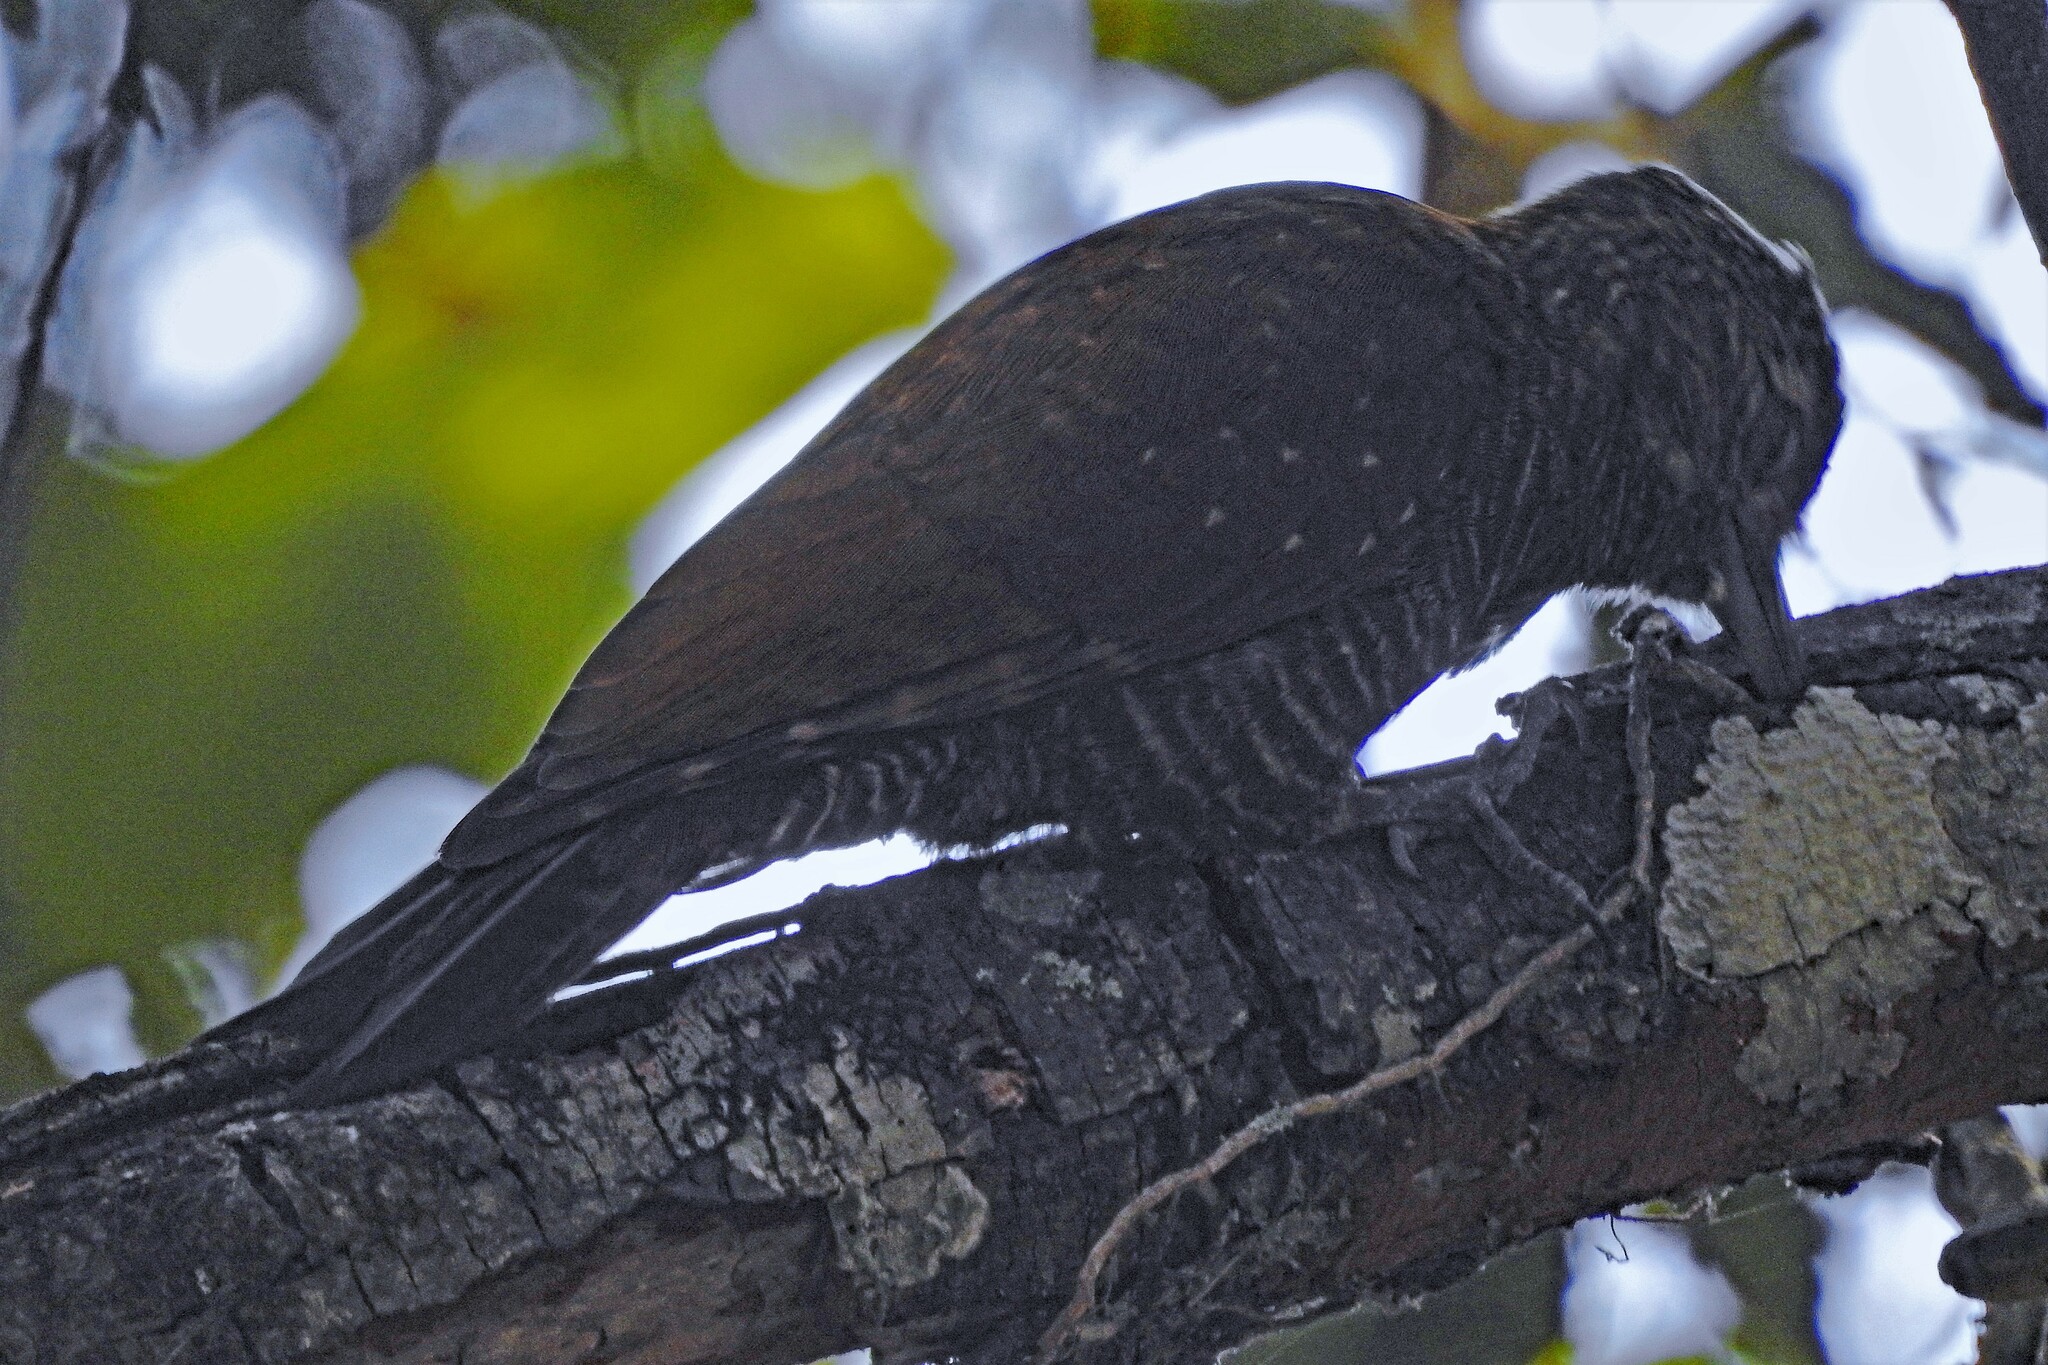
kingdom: Animalia
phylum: Chordata
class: Aves
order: Piciformes
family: Picidae
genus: Veniliornis
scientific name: Veniliornis frontalis
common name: Dot-fronted woodpecker
